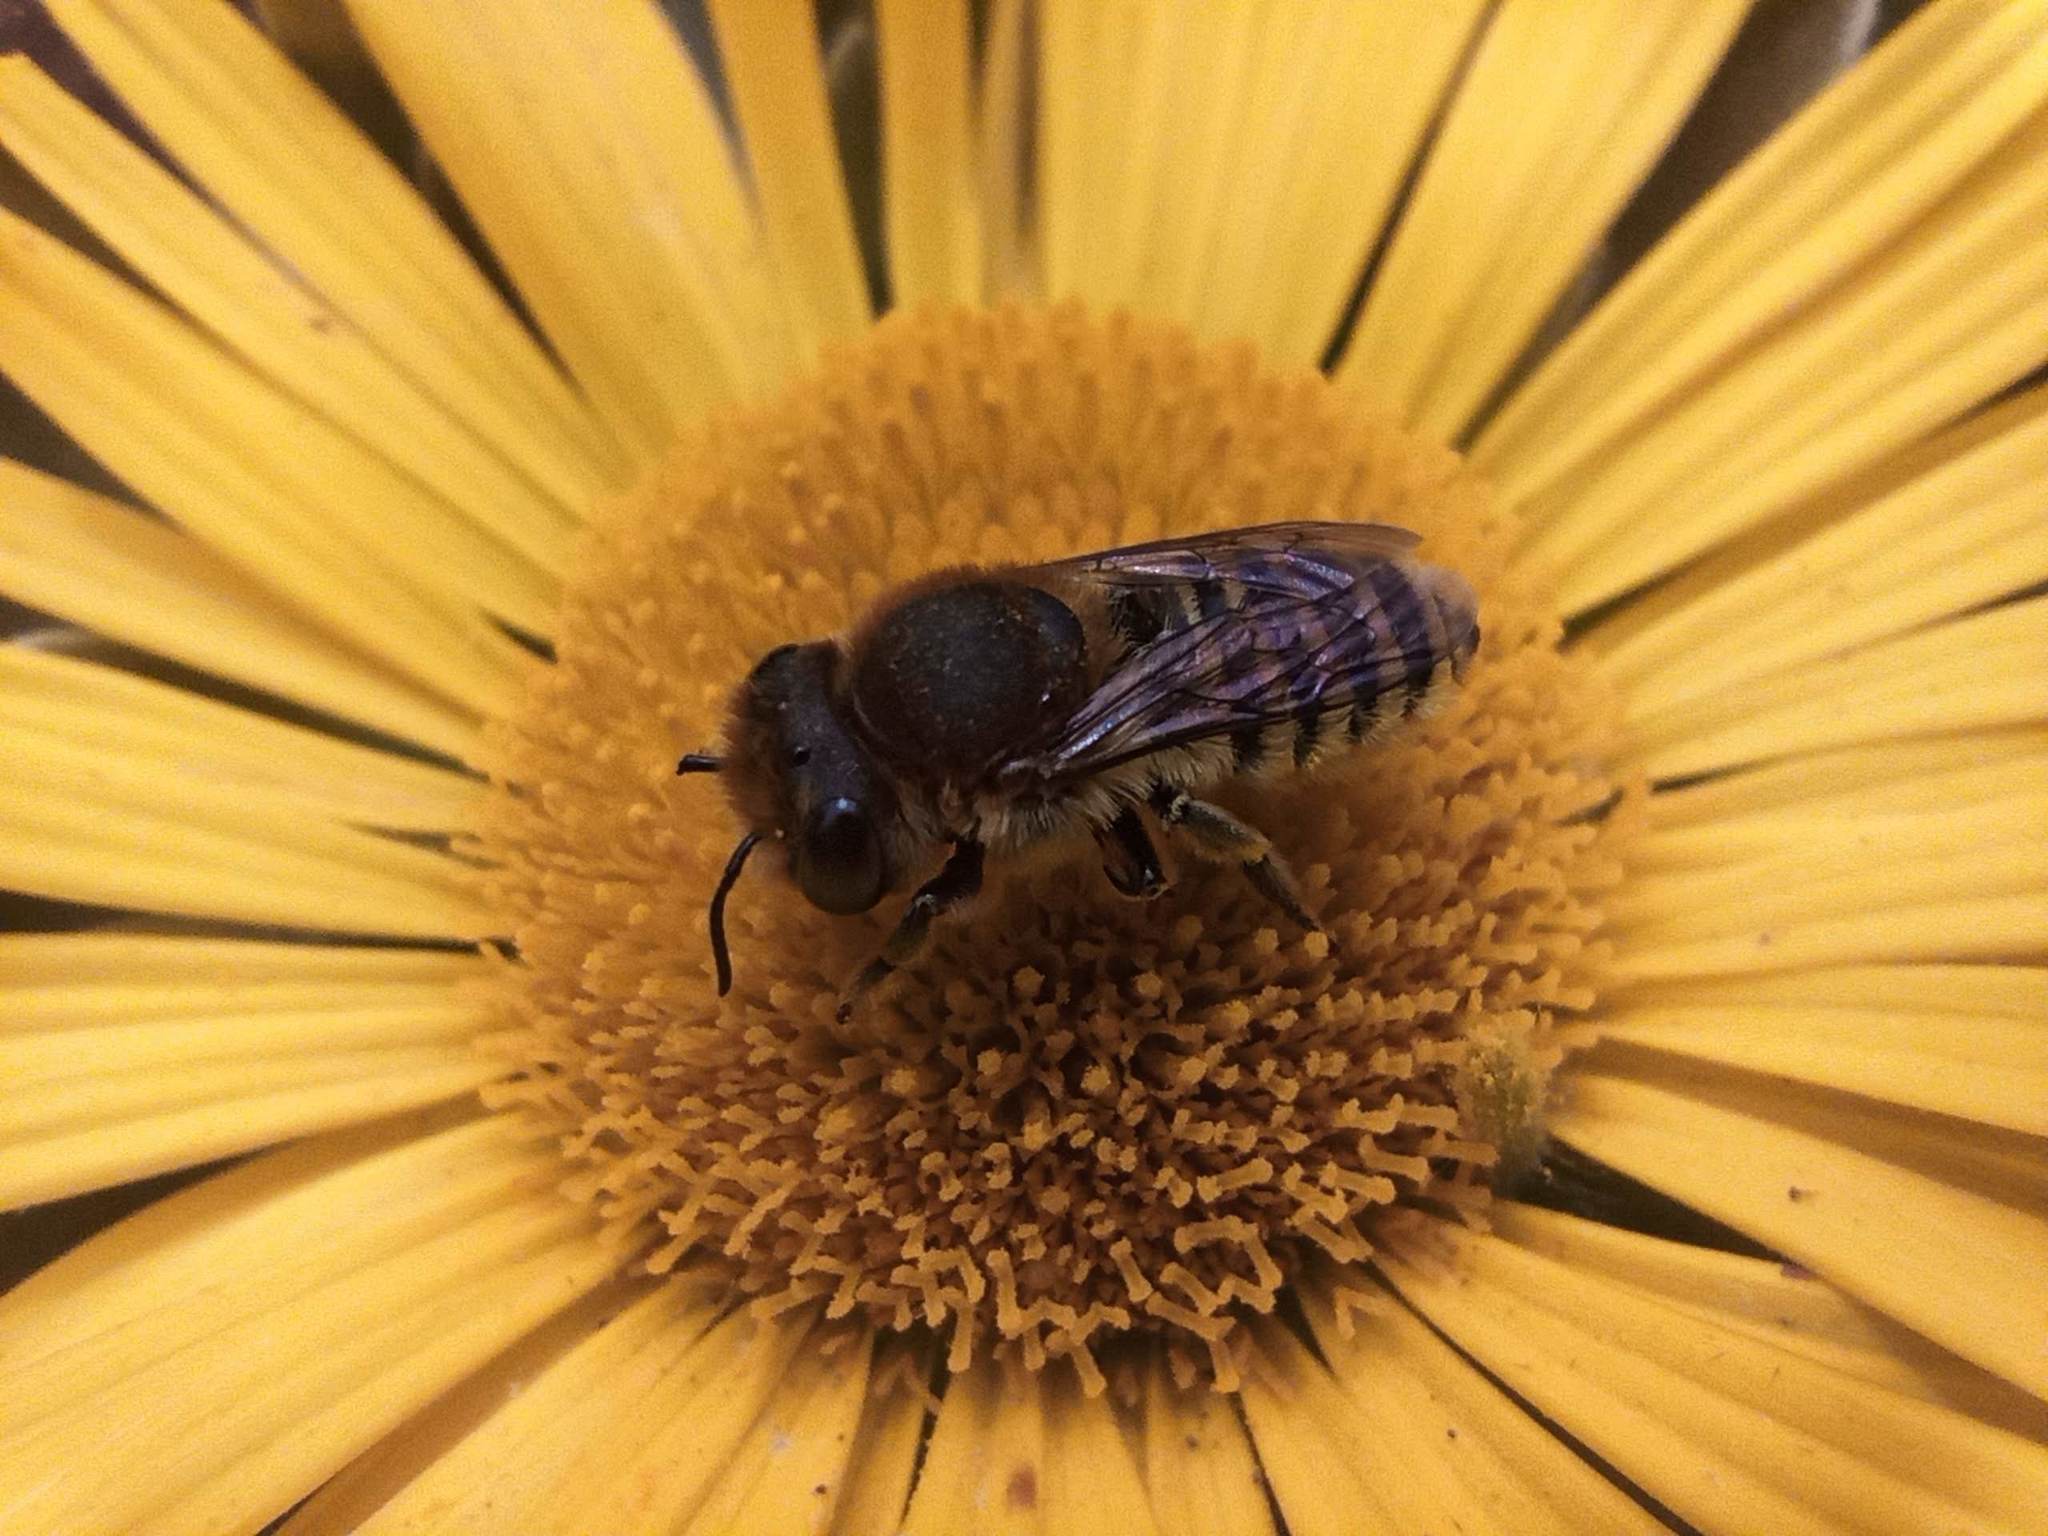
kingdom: Animalia
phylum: Arthropoda
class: Insecta
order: Hymenoptera
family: Megachilidae
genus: Megachile
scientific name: Megachile binominata
